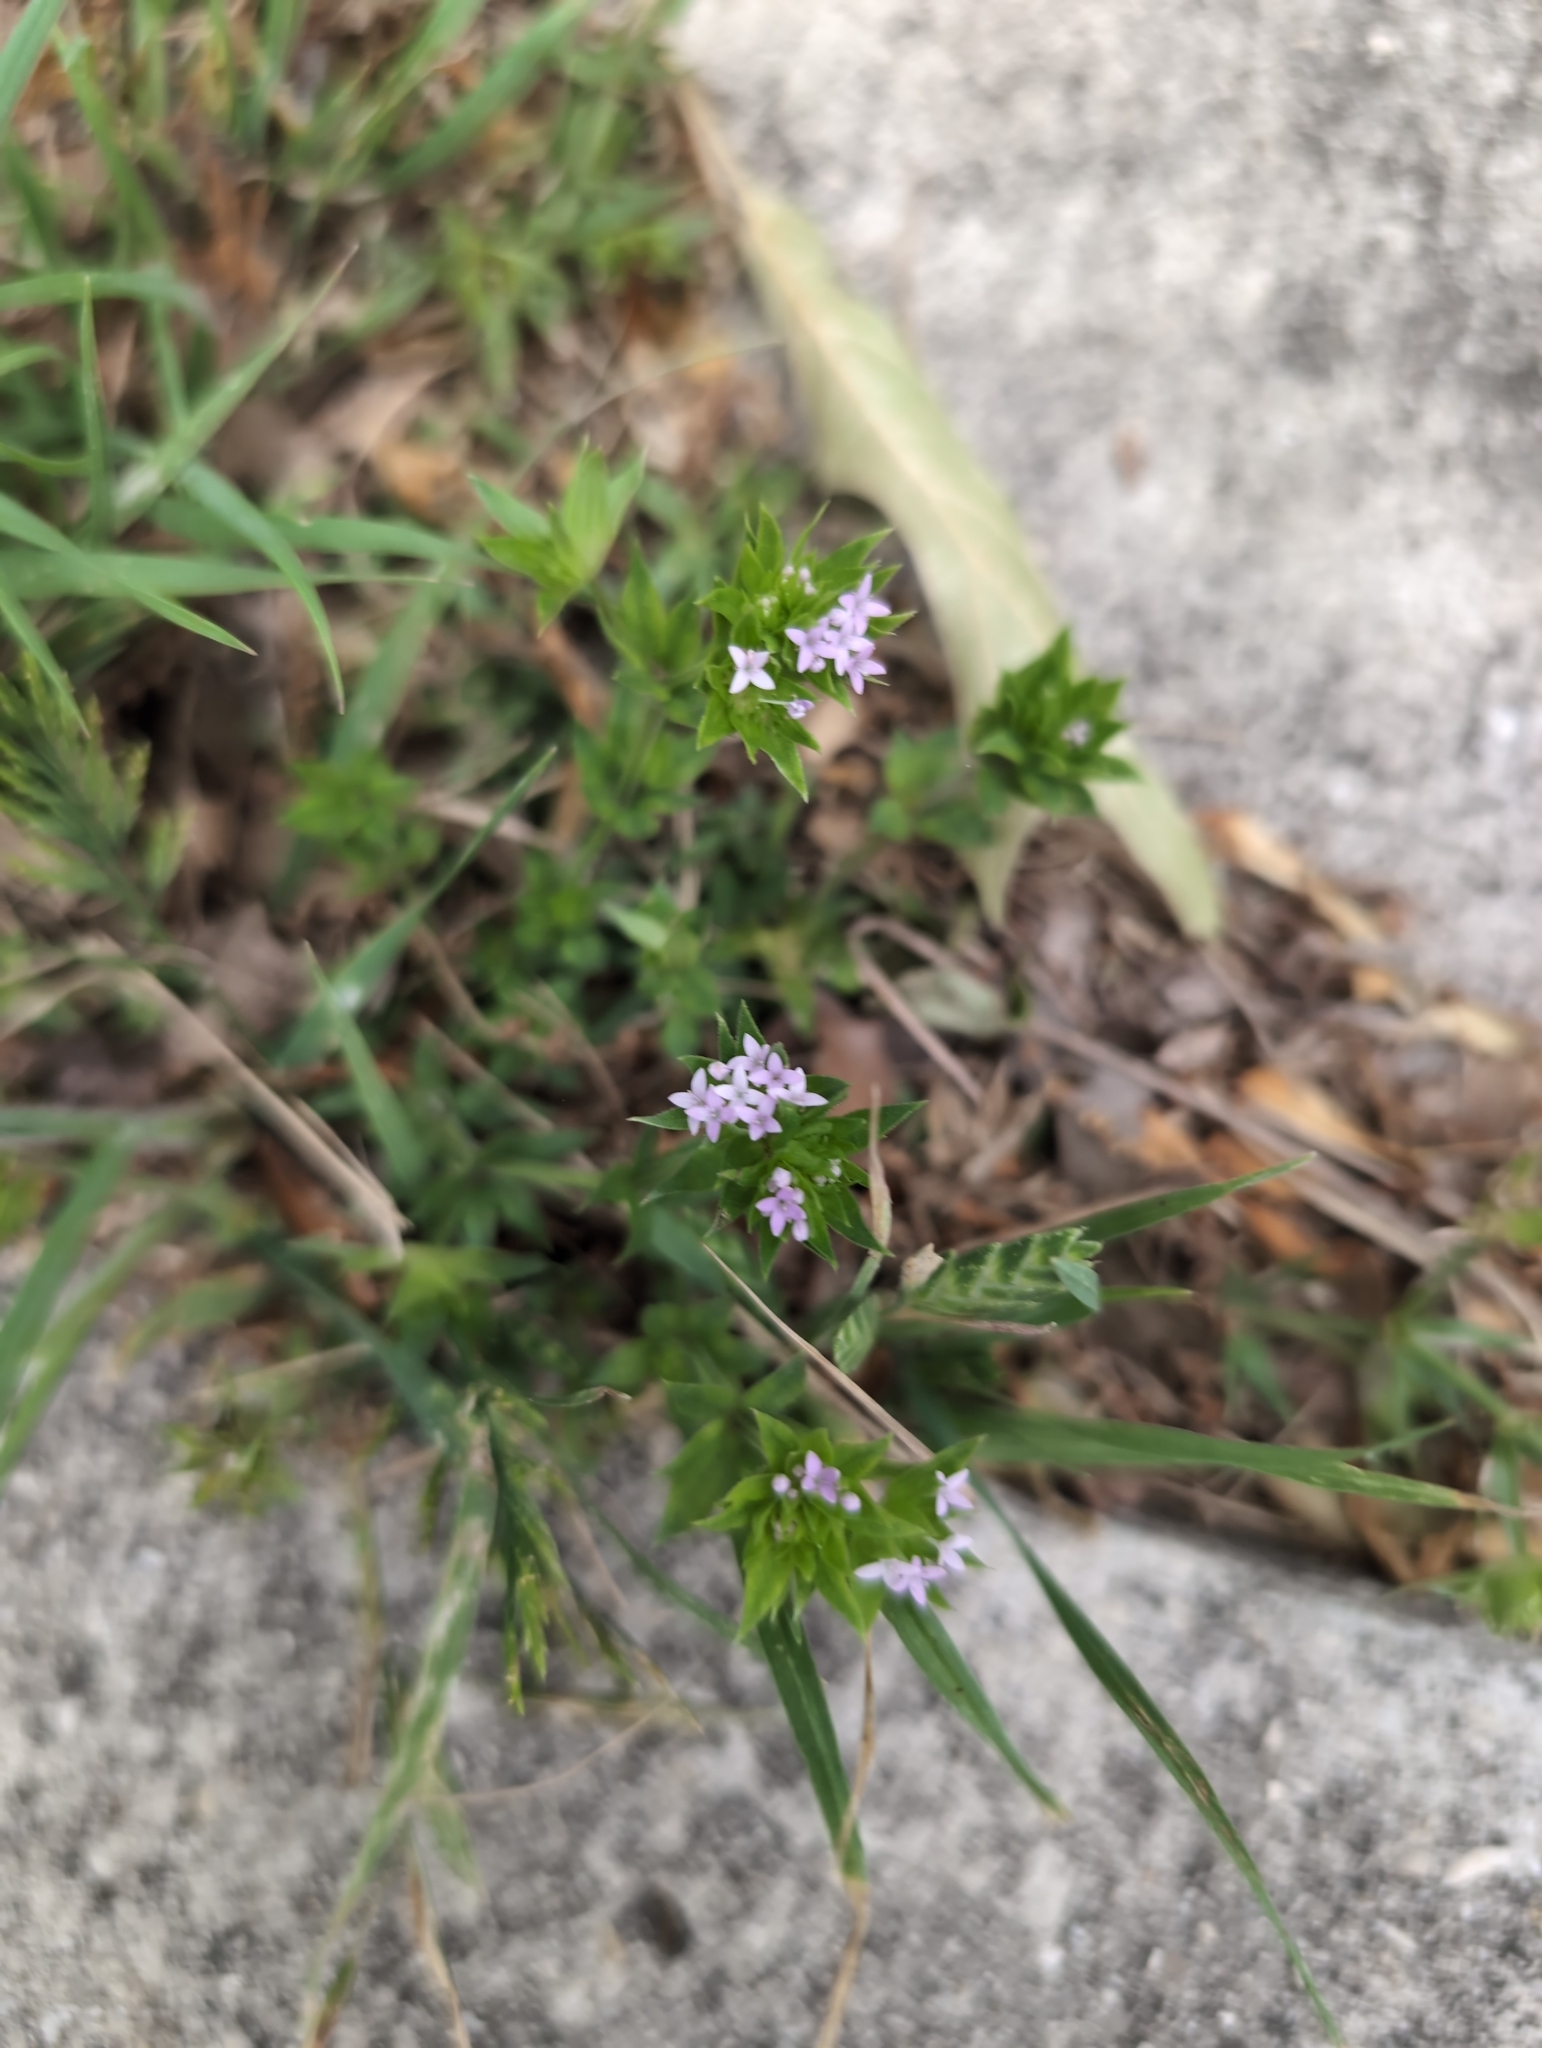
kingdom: Plantae
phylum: Tracheophyta
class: Magnoliopsida
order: Gentianales
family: Rubiaceae
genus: Sherardia
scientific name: Sherardia arvensis
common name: Field madder
